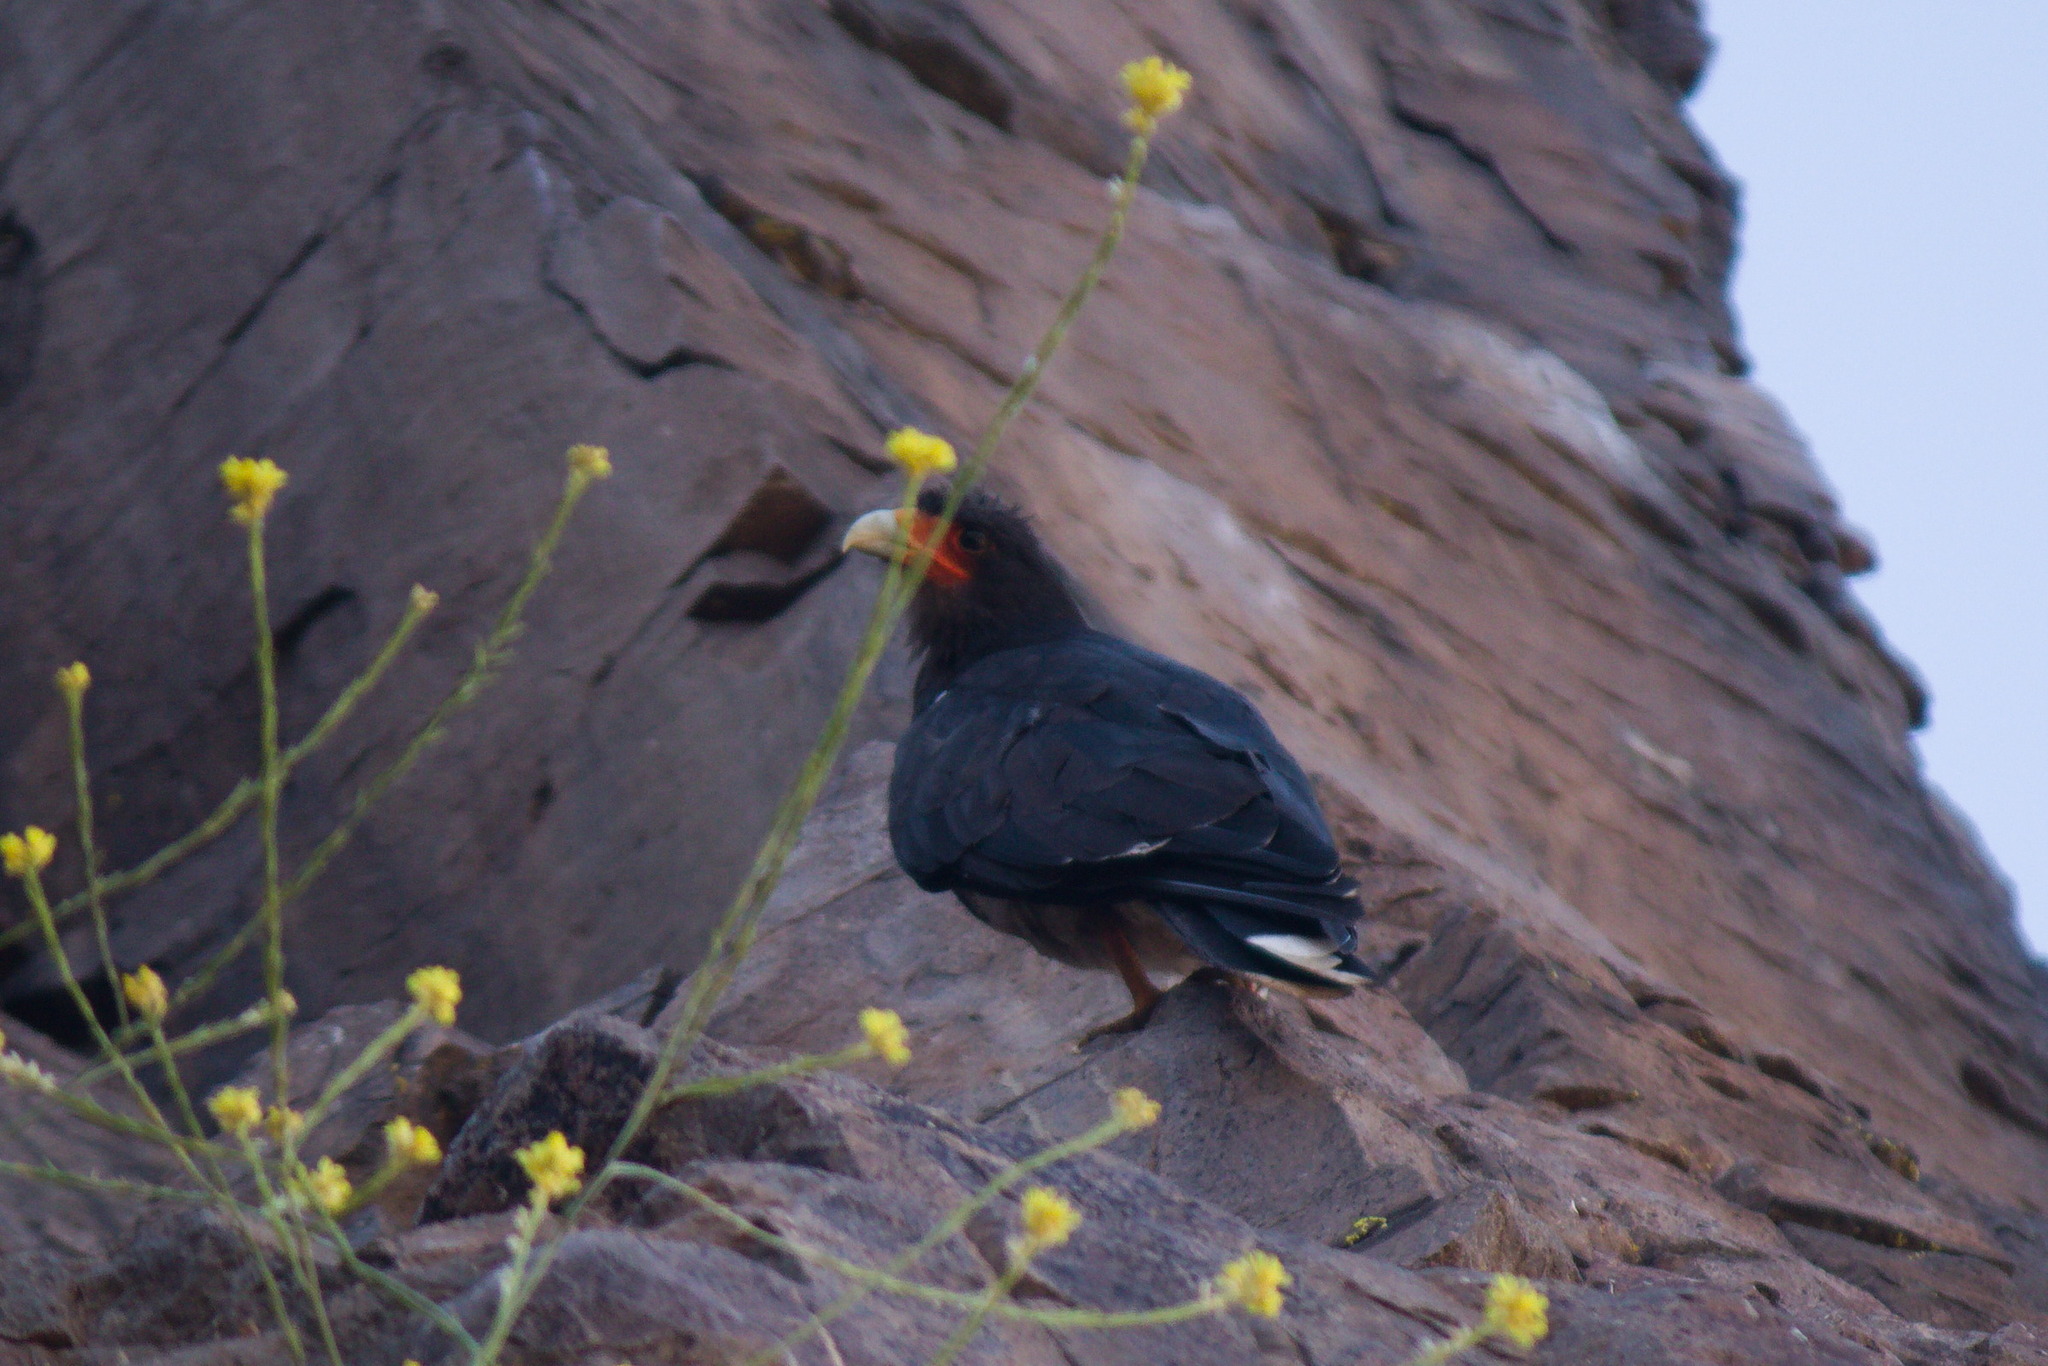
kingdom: Animalia
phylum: Chordata
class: Aves
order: Falconiformes
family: Falconidae
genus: Daptrius
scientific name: Daptrius
